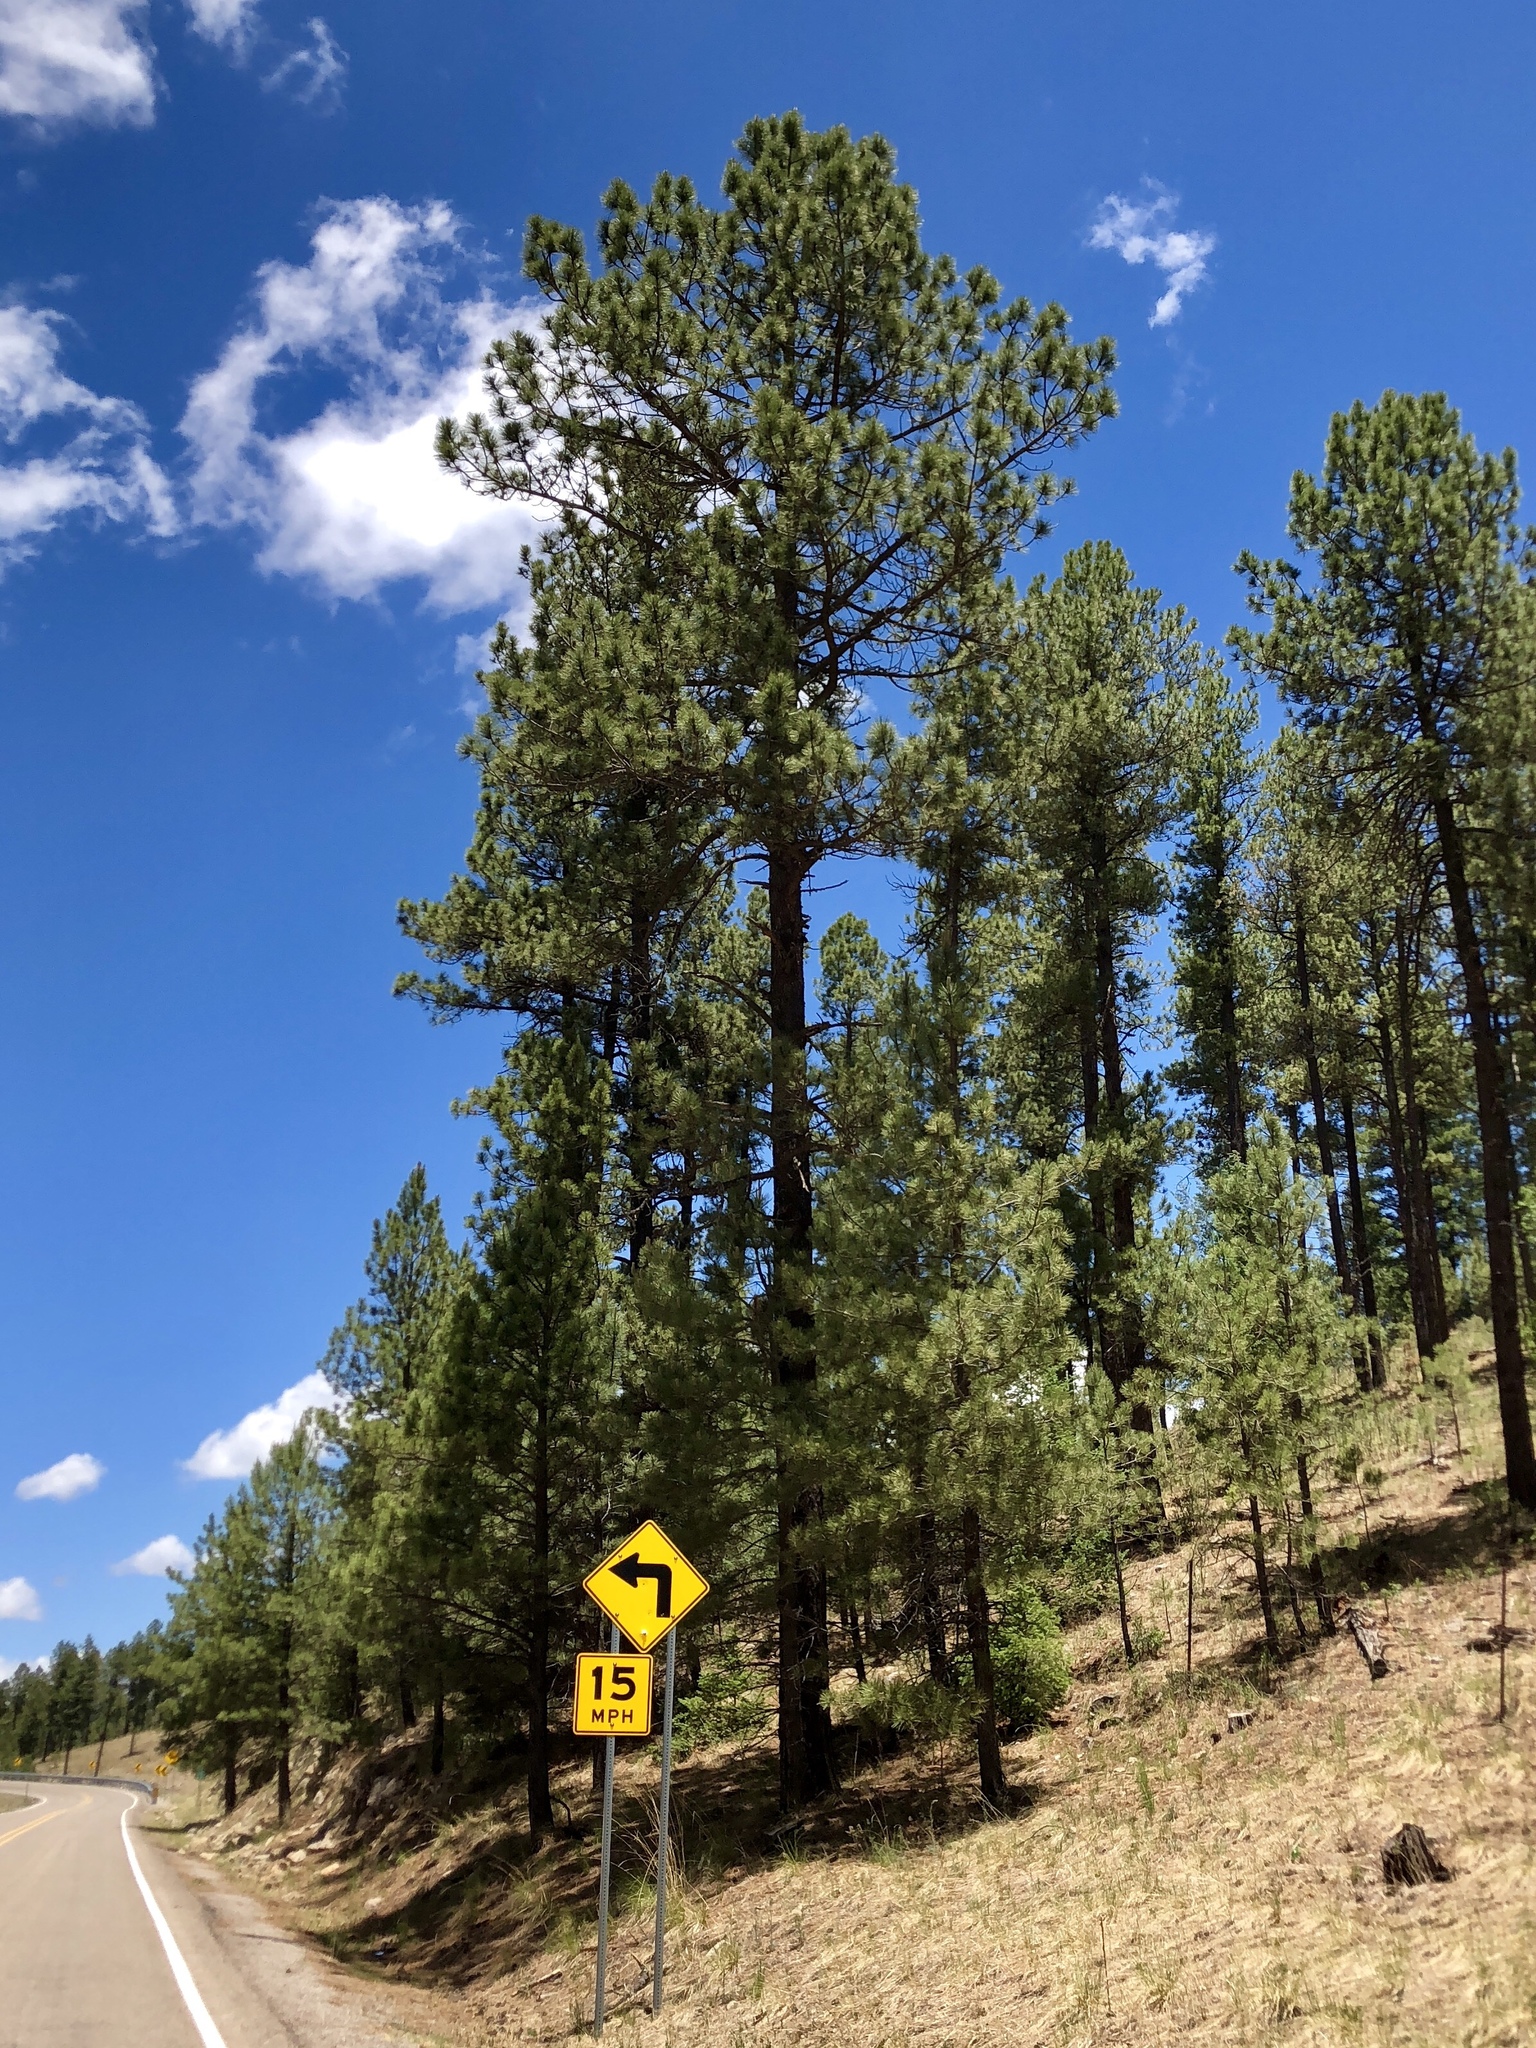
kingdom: Plantae
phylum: Tracheophyta
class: Pinopsida
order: Pinales
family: Pinaceae
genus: Pinus
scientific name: Pinus ponderosa
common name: Western yellow-pine
